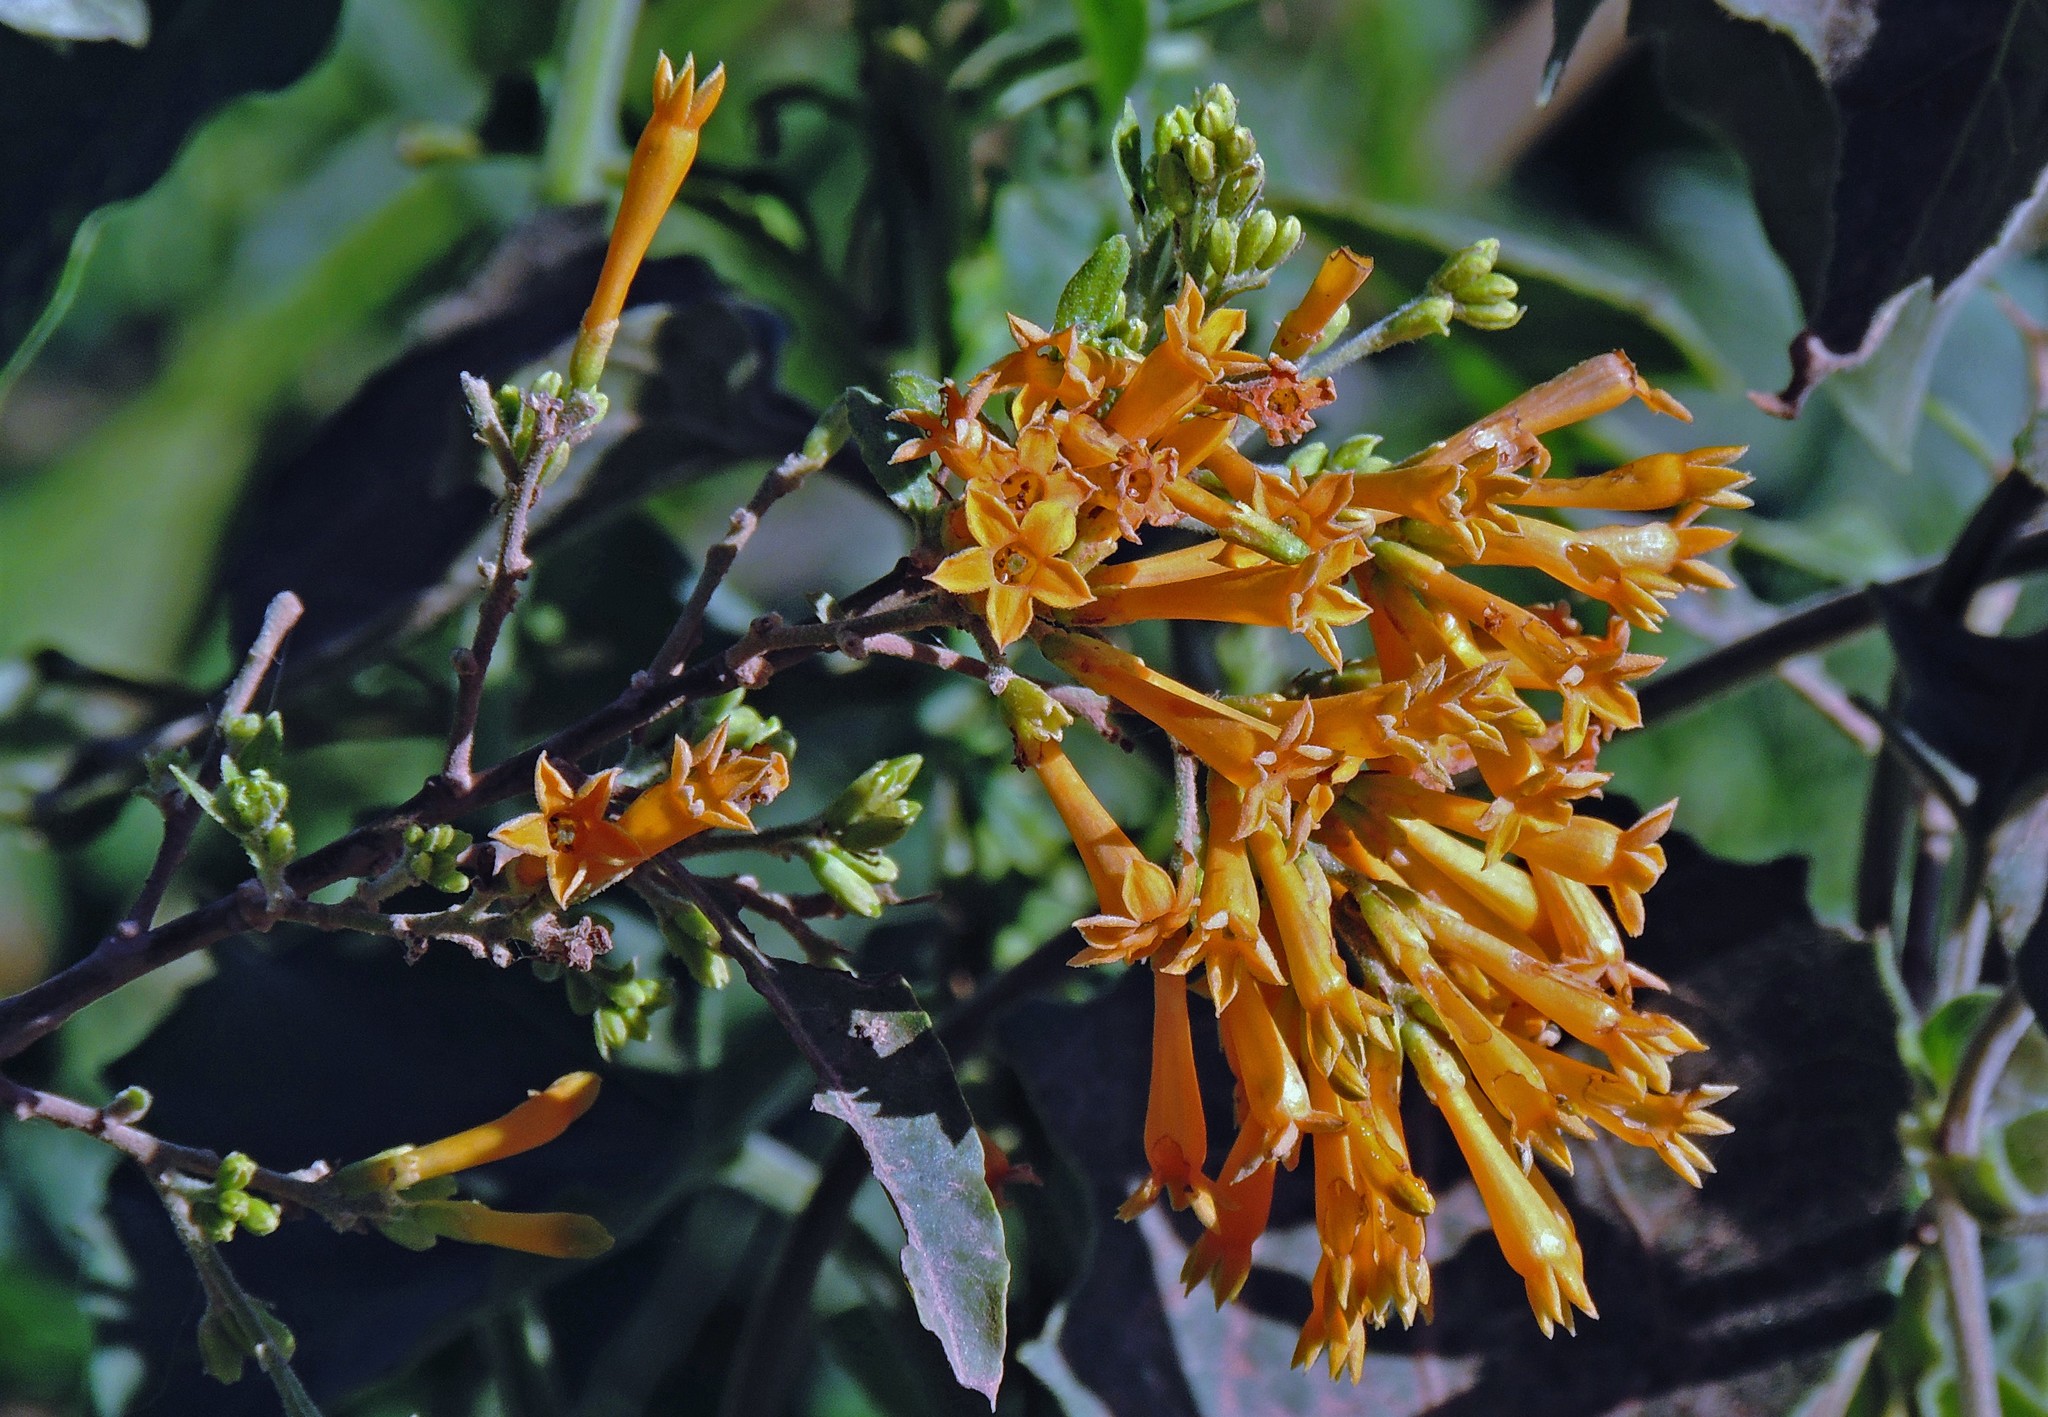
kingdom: Plantae
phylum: Tracheophyta
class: Magnoliopsida
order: Solanales
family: Solanaceae
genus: Cestrum
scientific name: Cestrum parqui
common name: Chilean cestrum
